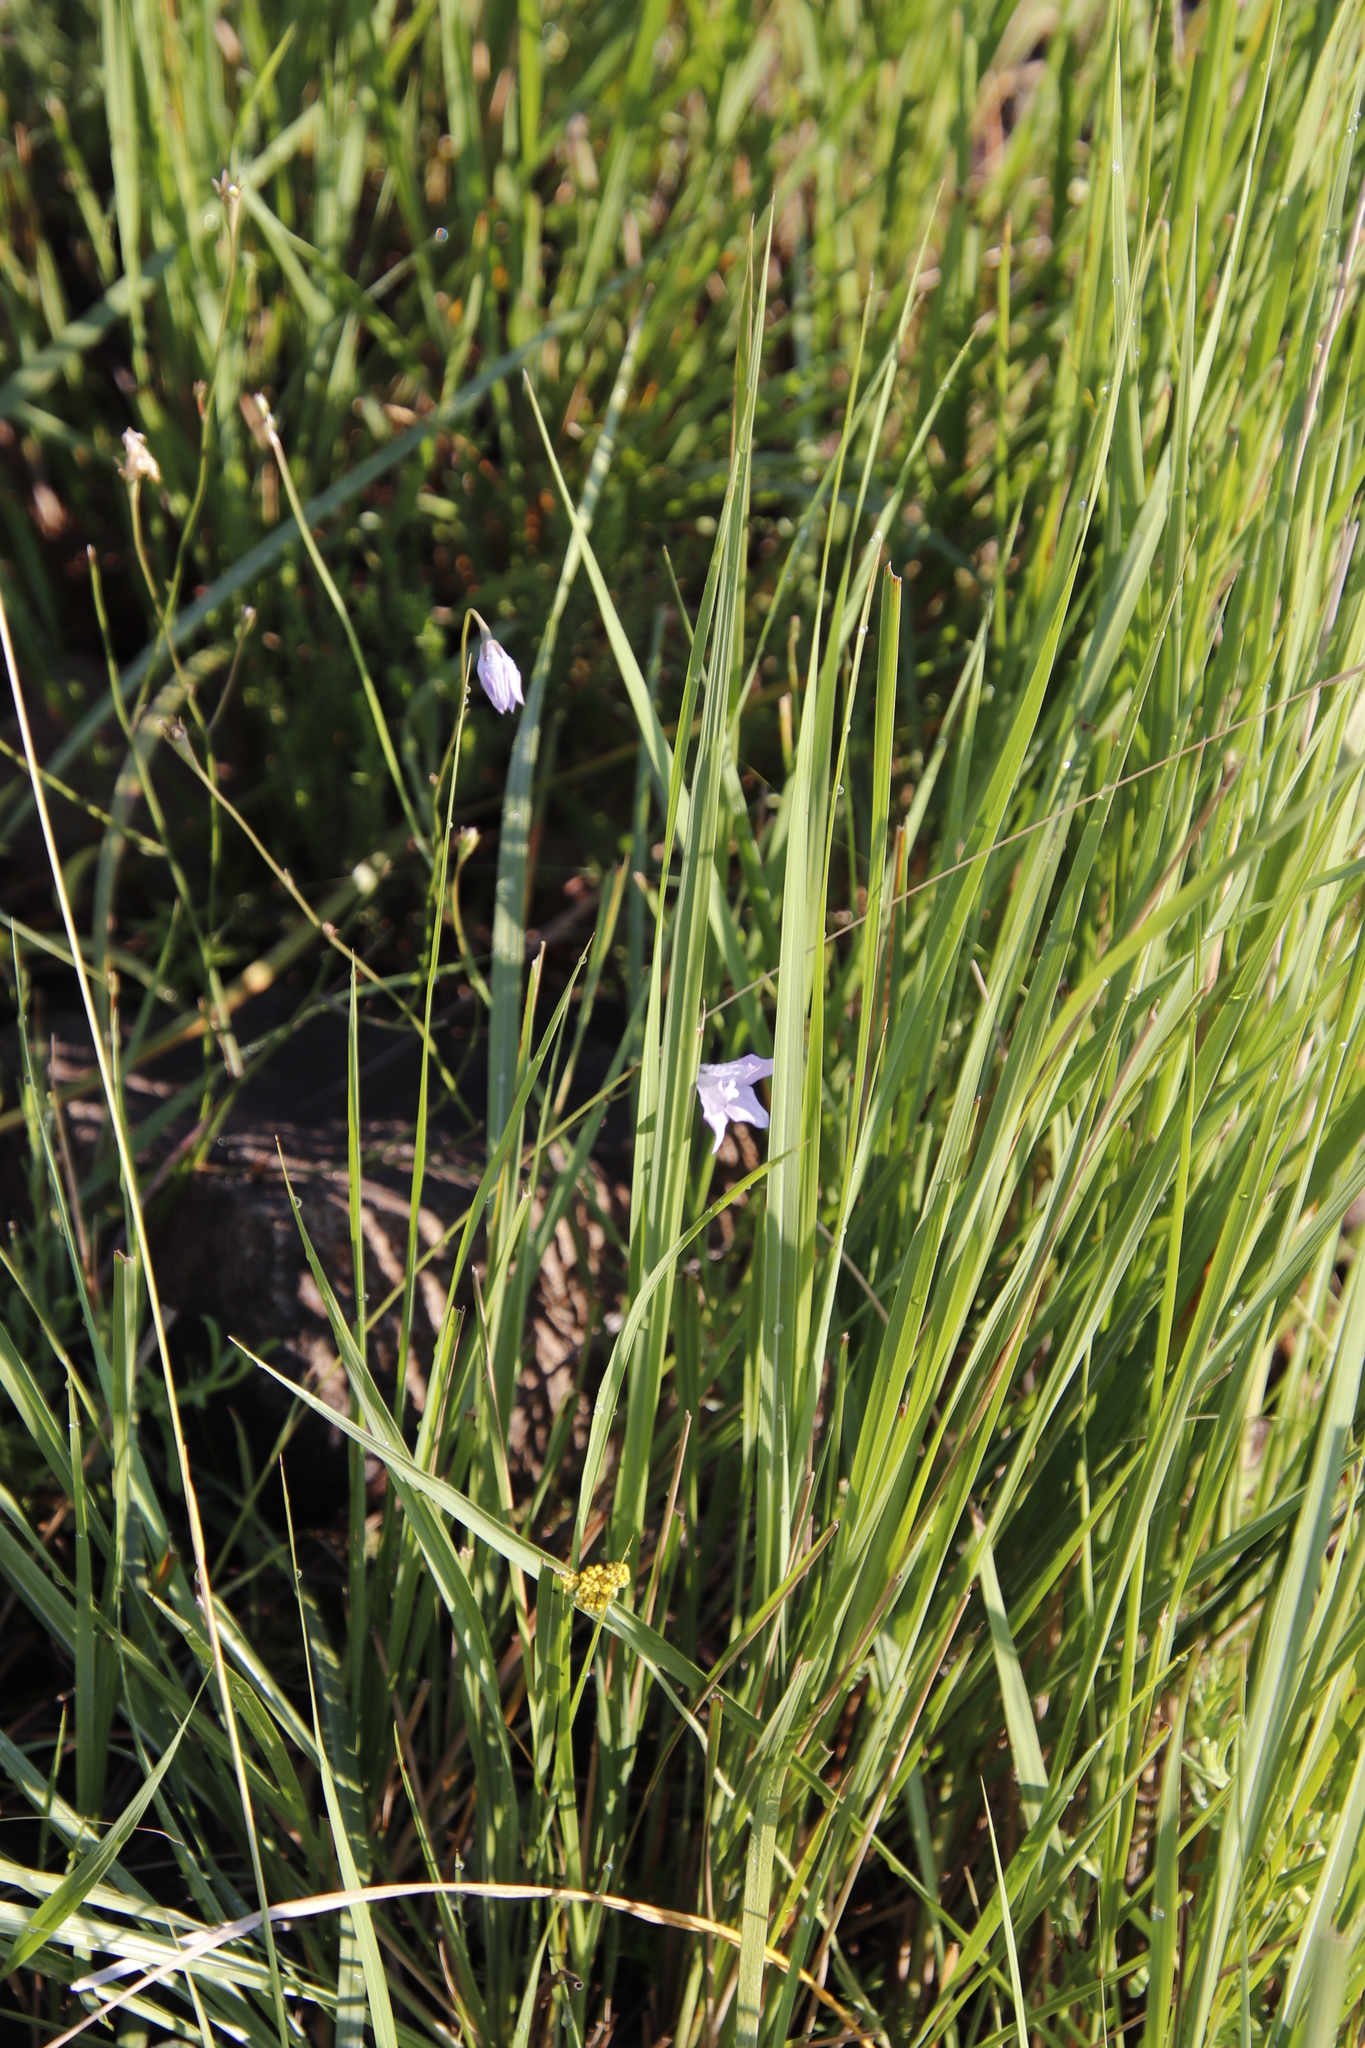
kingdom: Plantae
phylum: Tracheophyta
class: Magnoliopsida
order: Asterales
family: Campanulaceae
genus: Wahlenbergia
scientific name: Wahlenbergia krebsii
